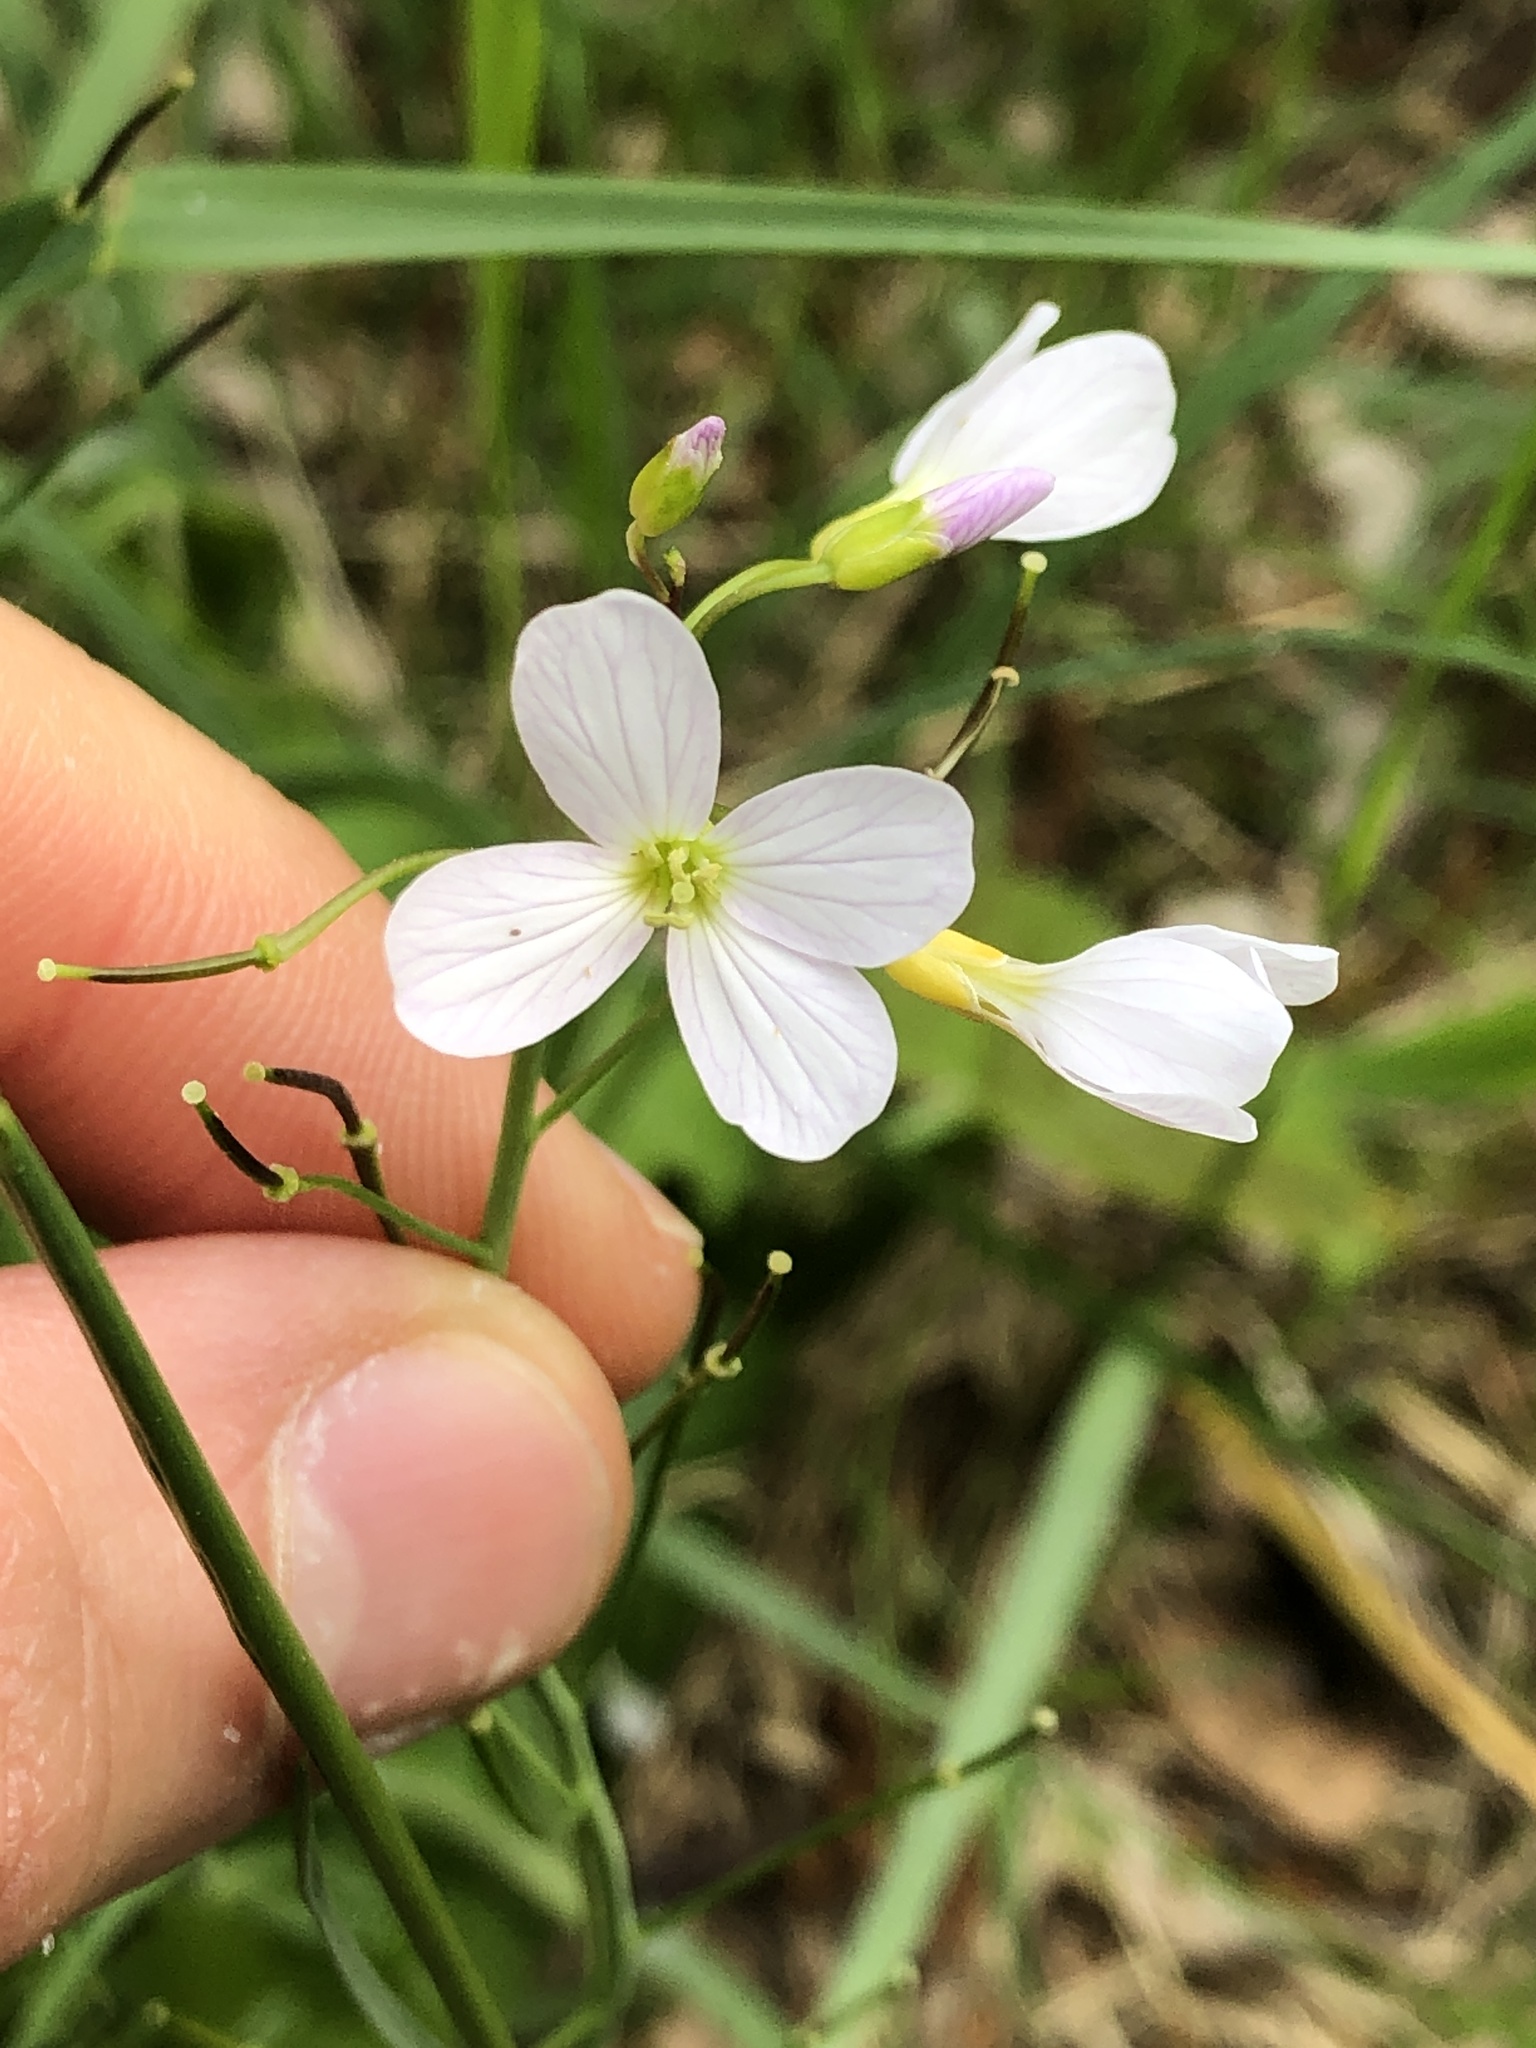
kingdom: Plantae
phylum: Tracheophyta
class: Magnoliopsida
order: Brassicales
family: Brassicaceae
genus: Cardamine
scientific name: Cardamine pratensis
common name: Cuckoo flower
